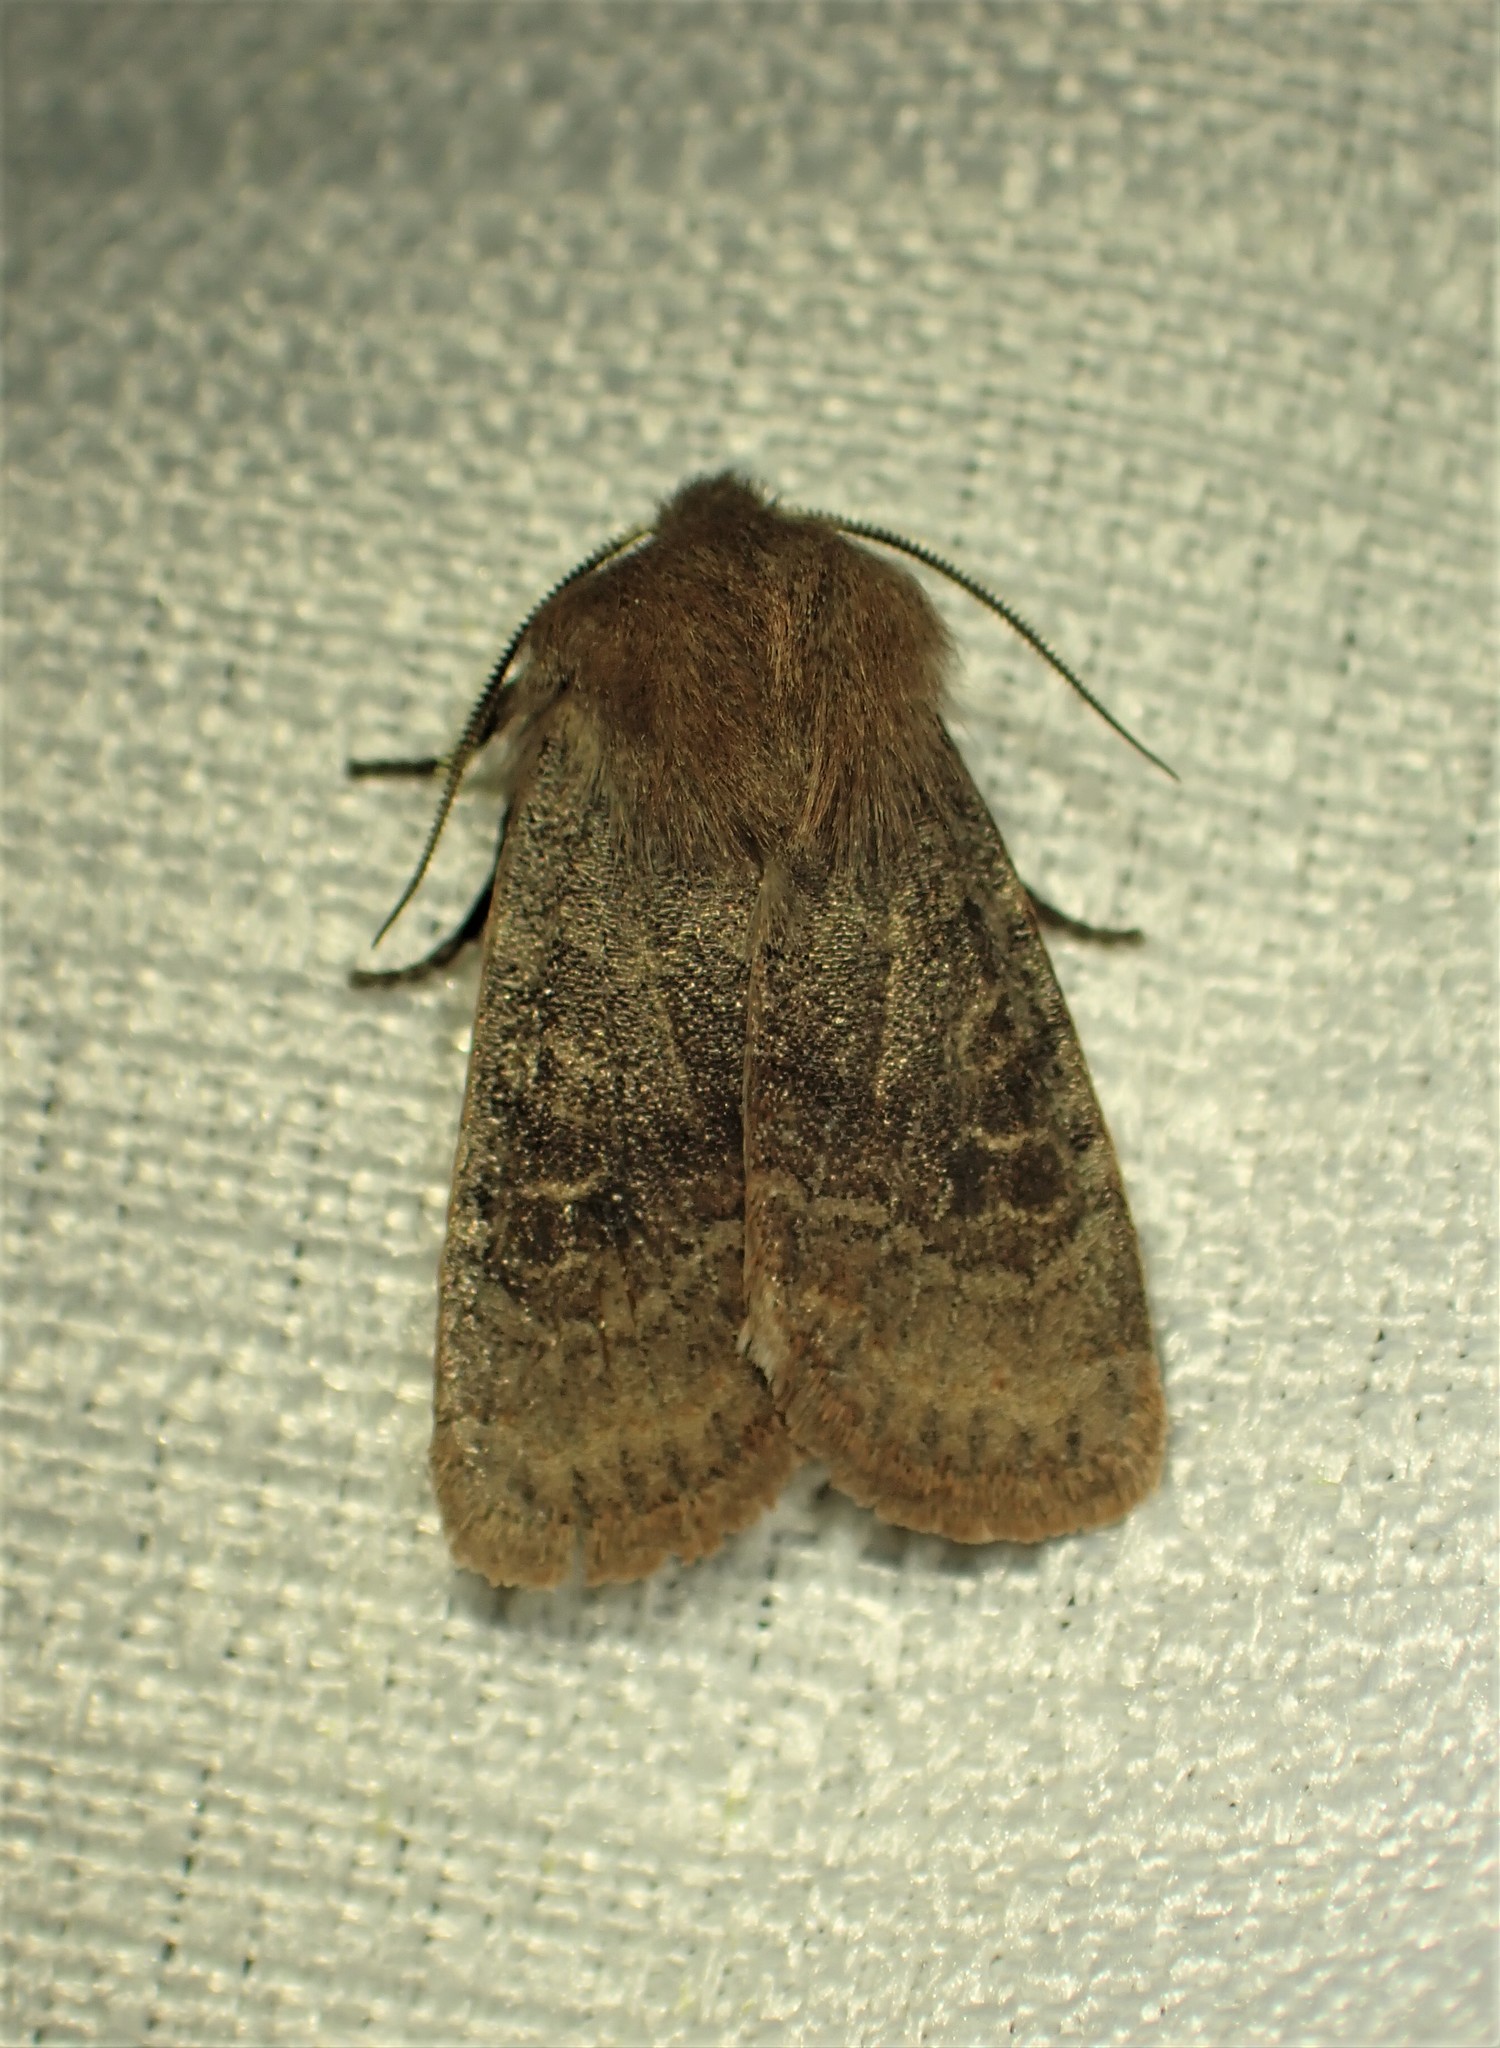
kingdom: Animalia
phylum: Arthropoda
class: Insecta
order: Lepidoptera
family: Noctuidae
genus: Homoglaea
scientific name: Homoglaea hircina
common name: Goat sallow
